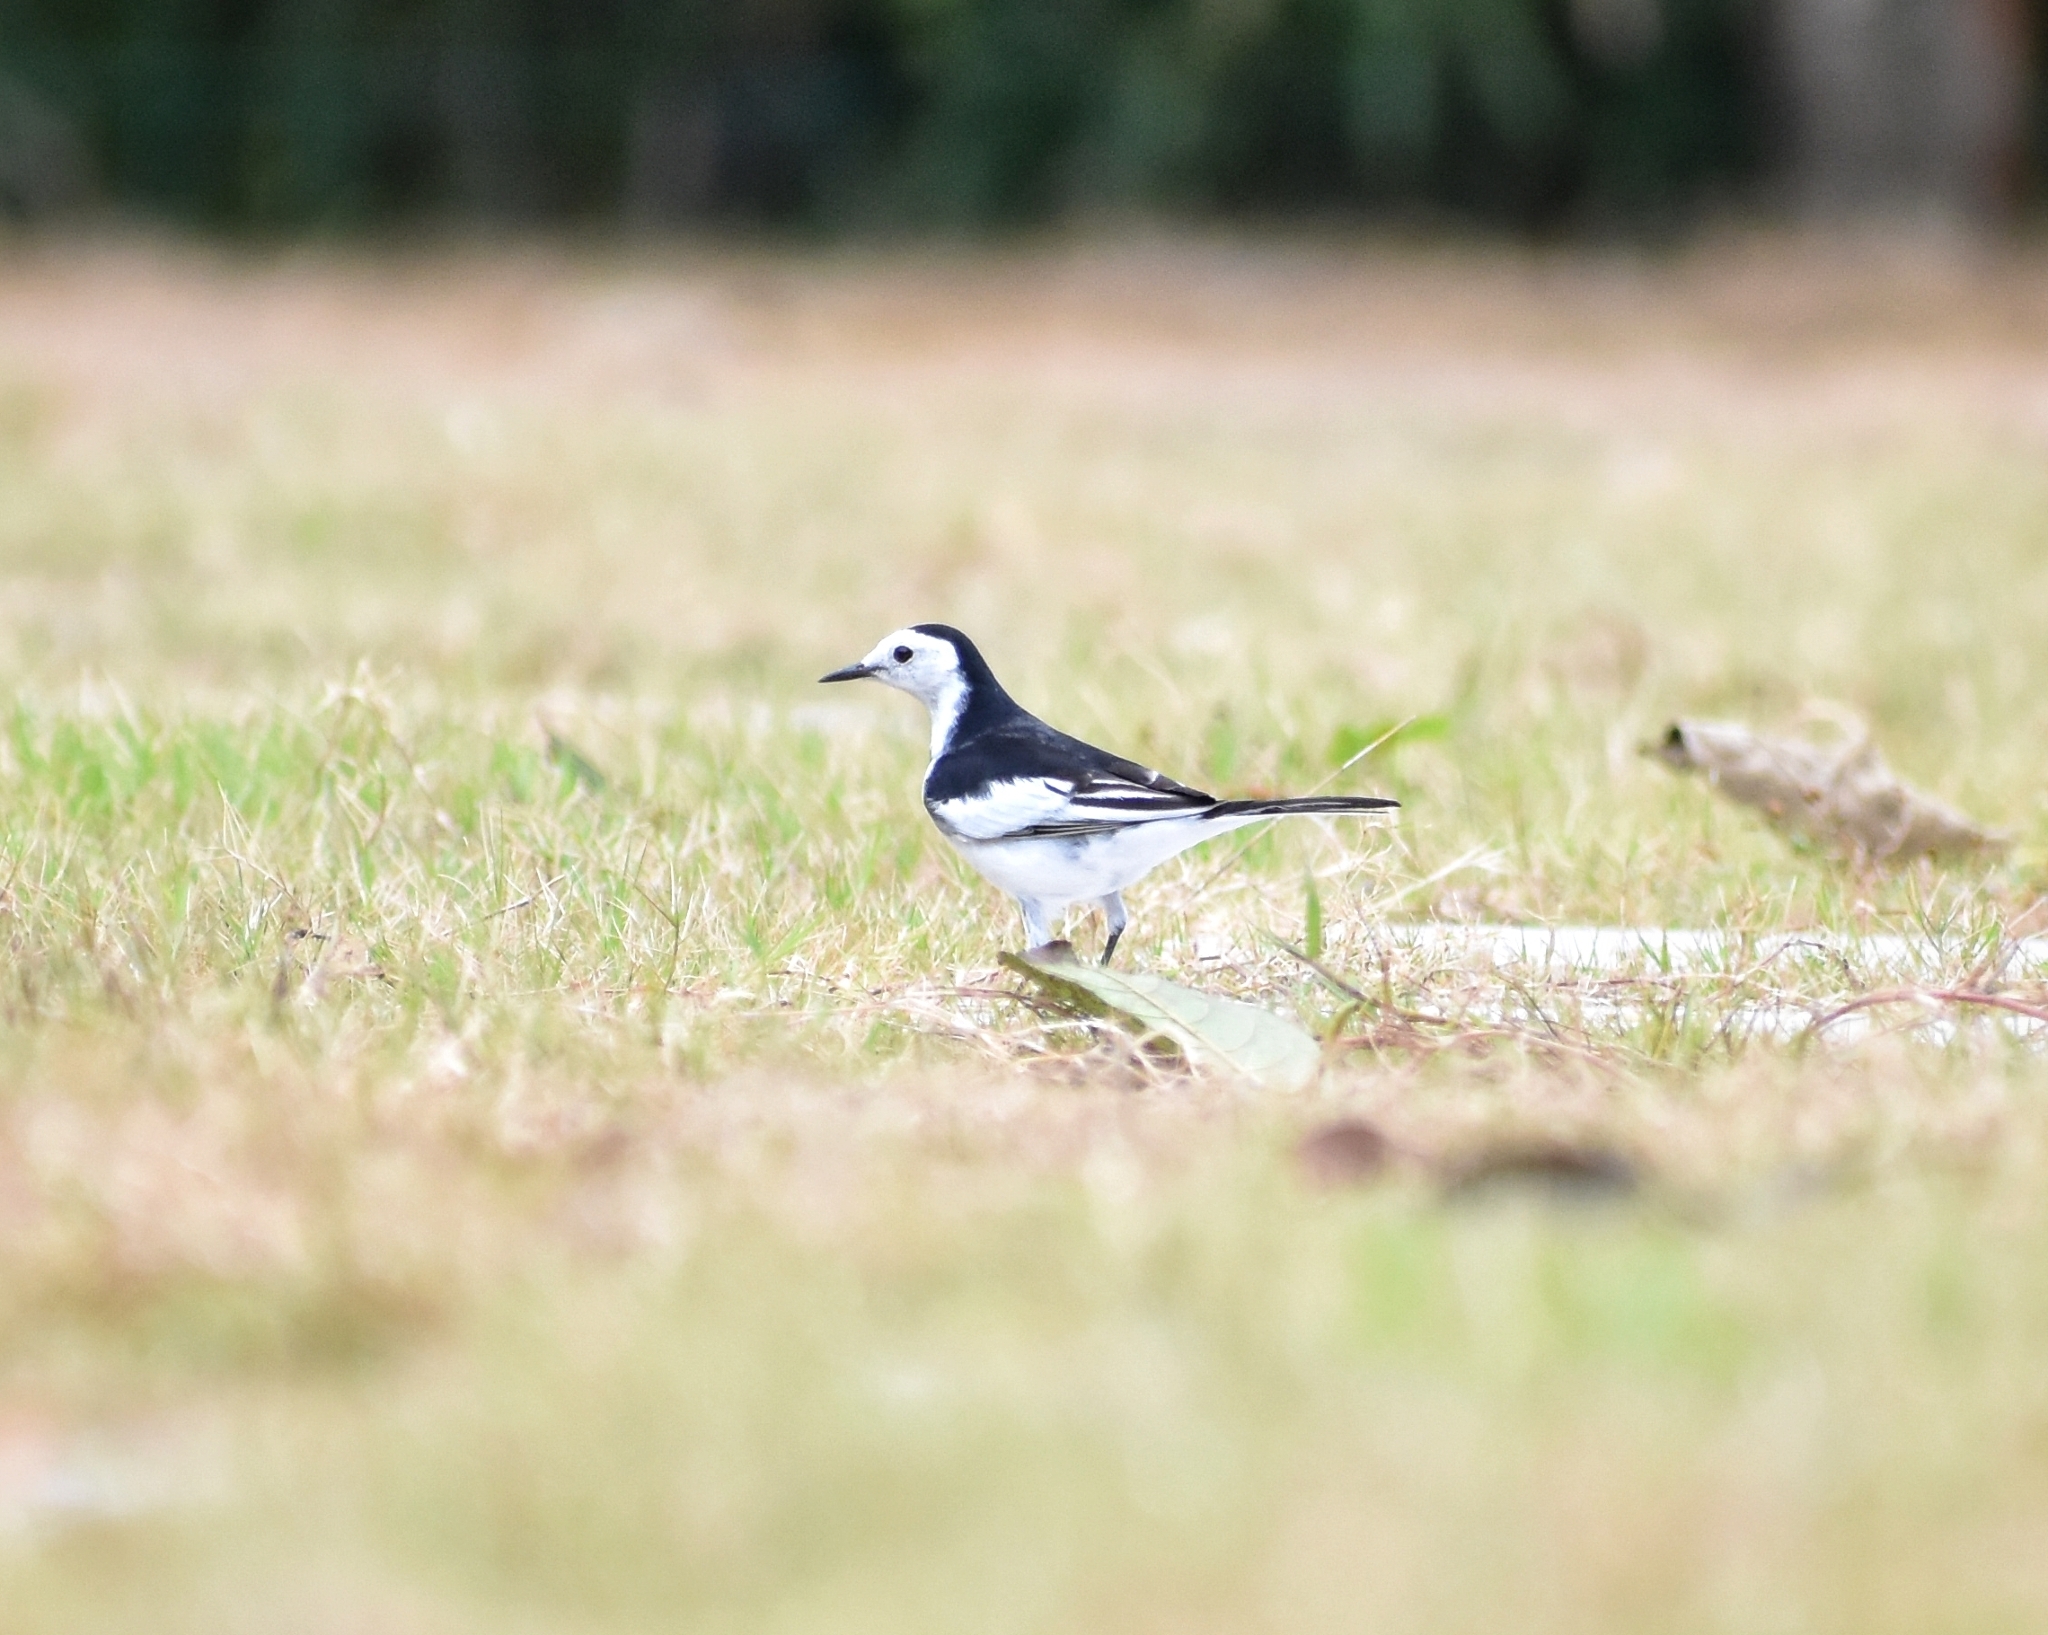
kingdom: Animalia
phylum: Chordata
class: Aves
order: Passeriformes
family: Motacillidae
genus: Motacilla
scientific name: Motacilla alba
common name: White wagtail
